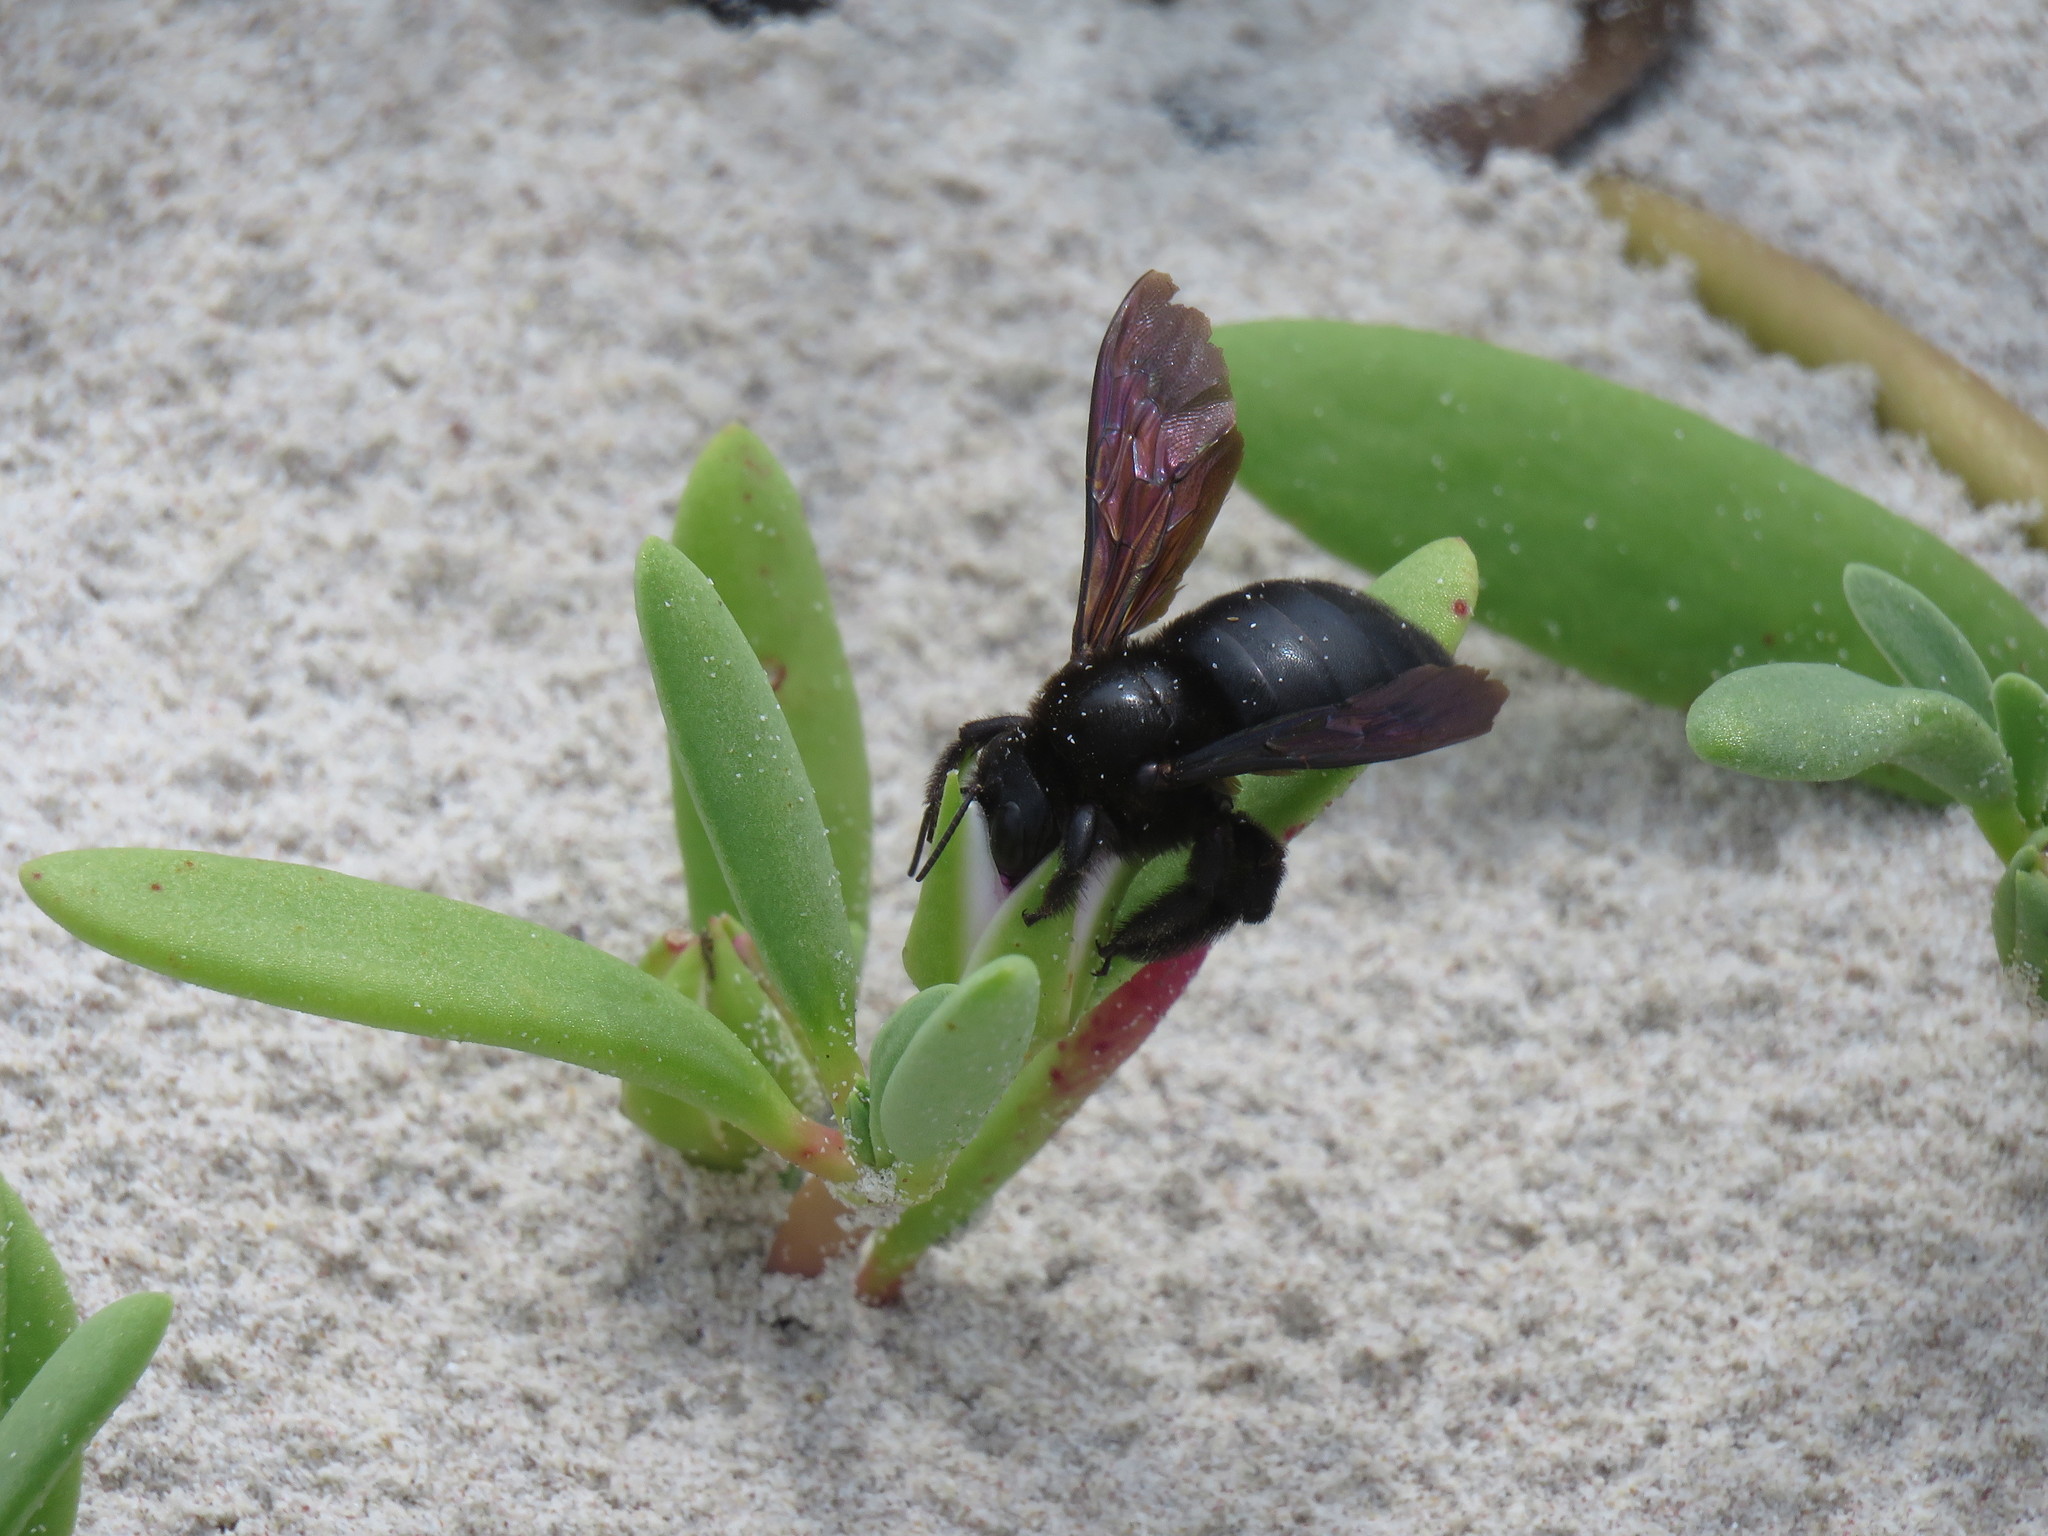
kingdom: Animalia
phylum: Arthropoda
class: Insecta
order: Hymenoptera
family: Apidae
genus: Xylocopa
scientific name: Xylocopa darwini
